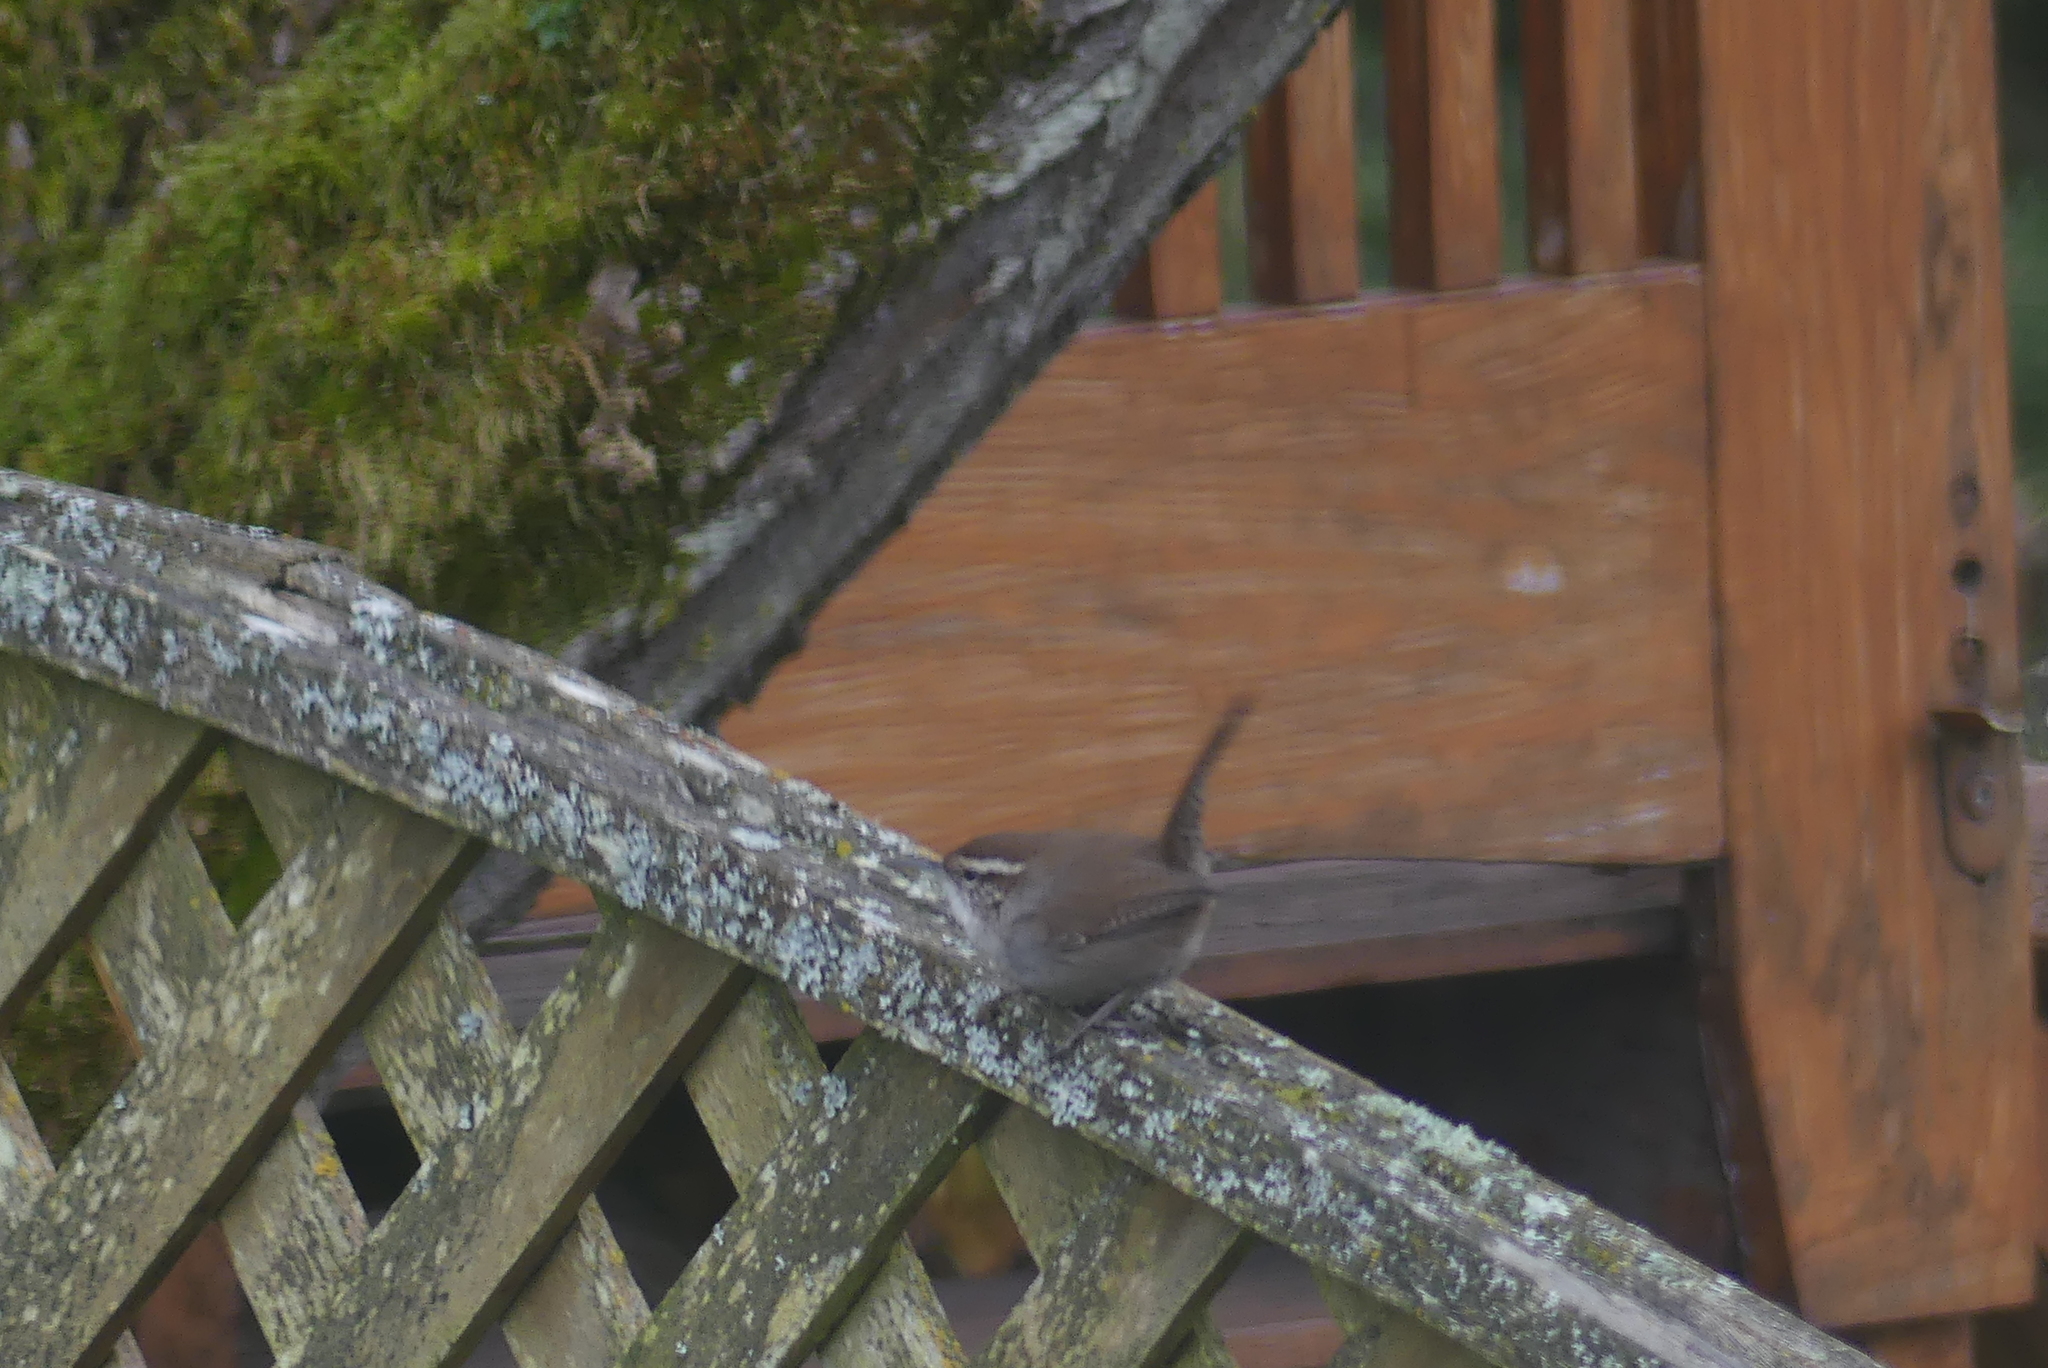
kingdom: Animalia
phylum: Chordata
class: Aves
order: Passeriformes
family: Troglodytidae
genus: Thryomanes
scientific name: Thryomanes bewickii
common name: Bewick's wren
